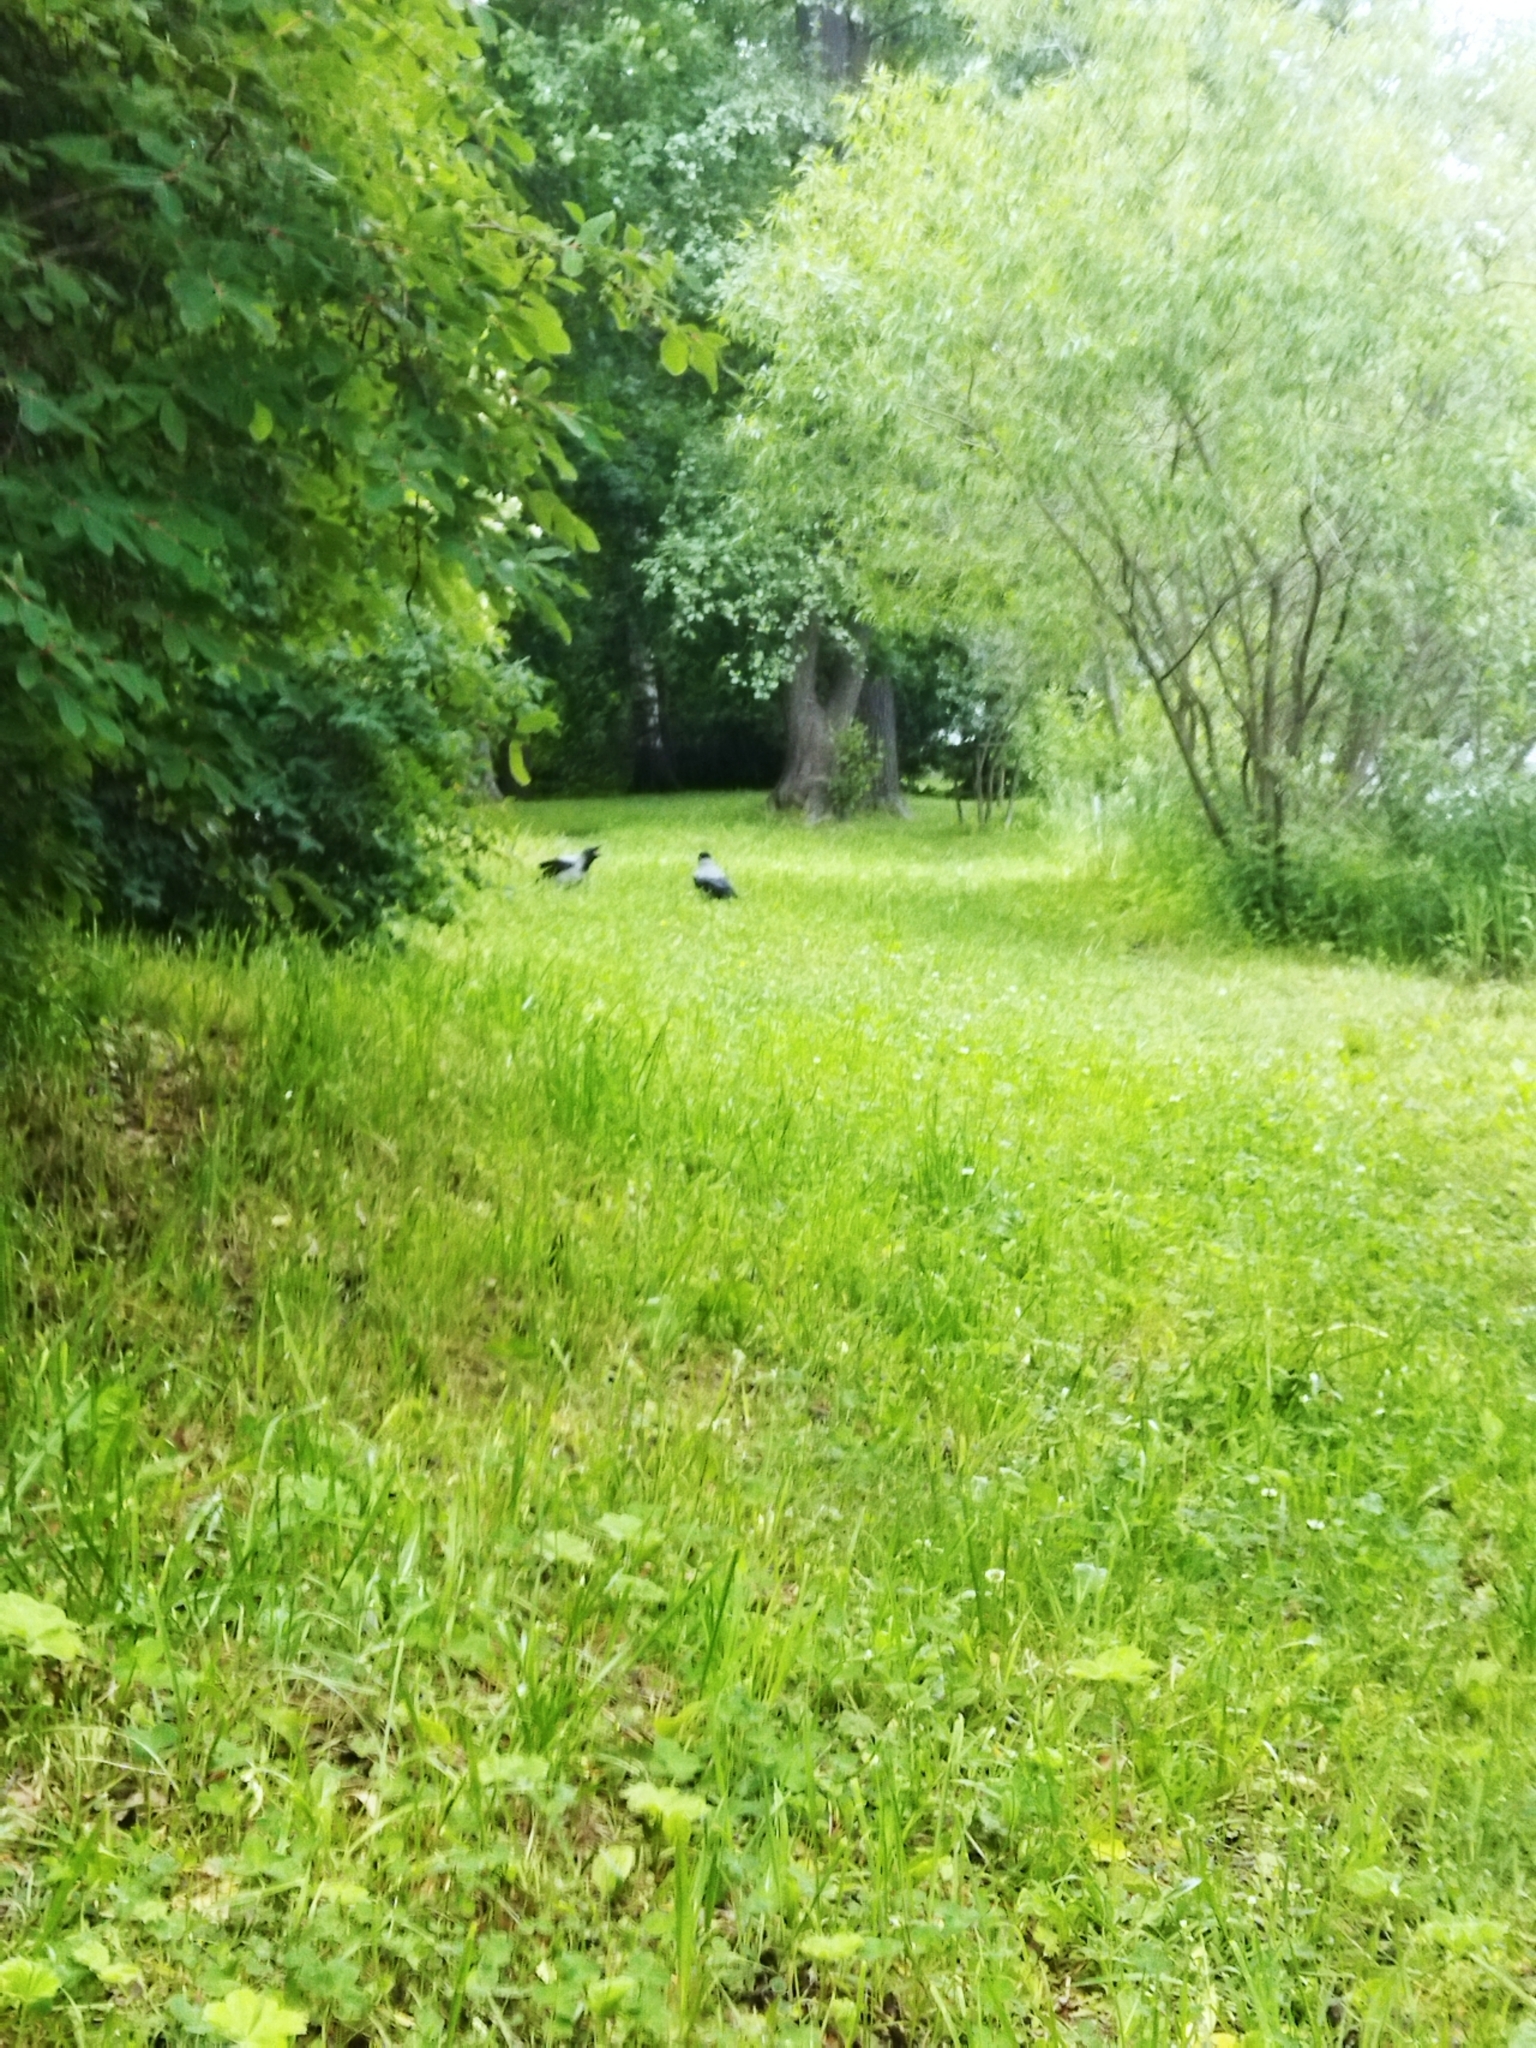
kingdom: Animalia
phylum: Chordata
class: Aves
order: Passeriformes
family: Corvidae
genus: Corvus
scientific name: Corvus cornix
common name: Hooded crow
